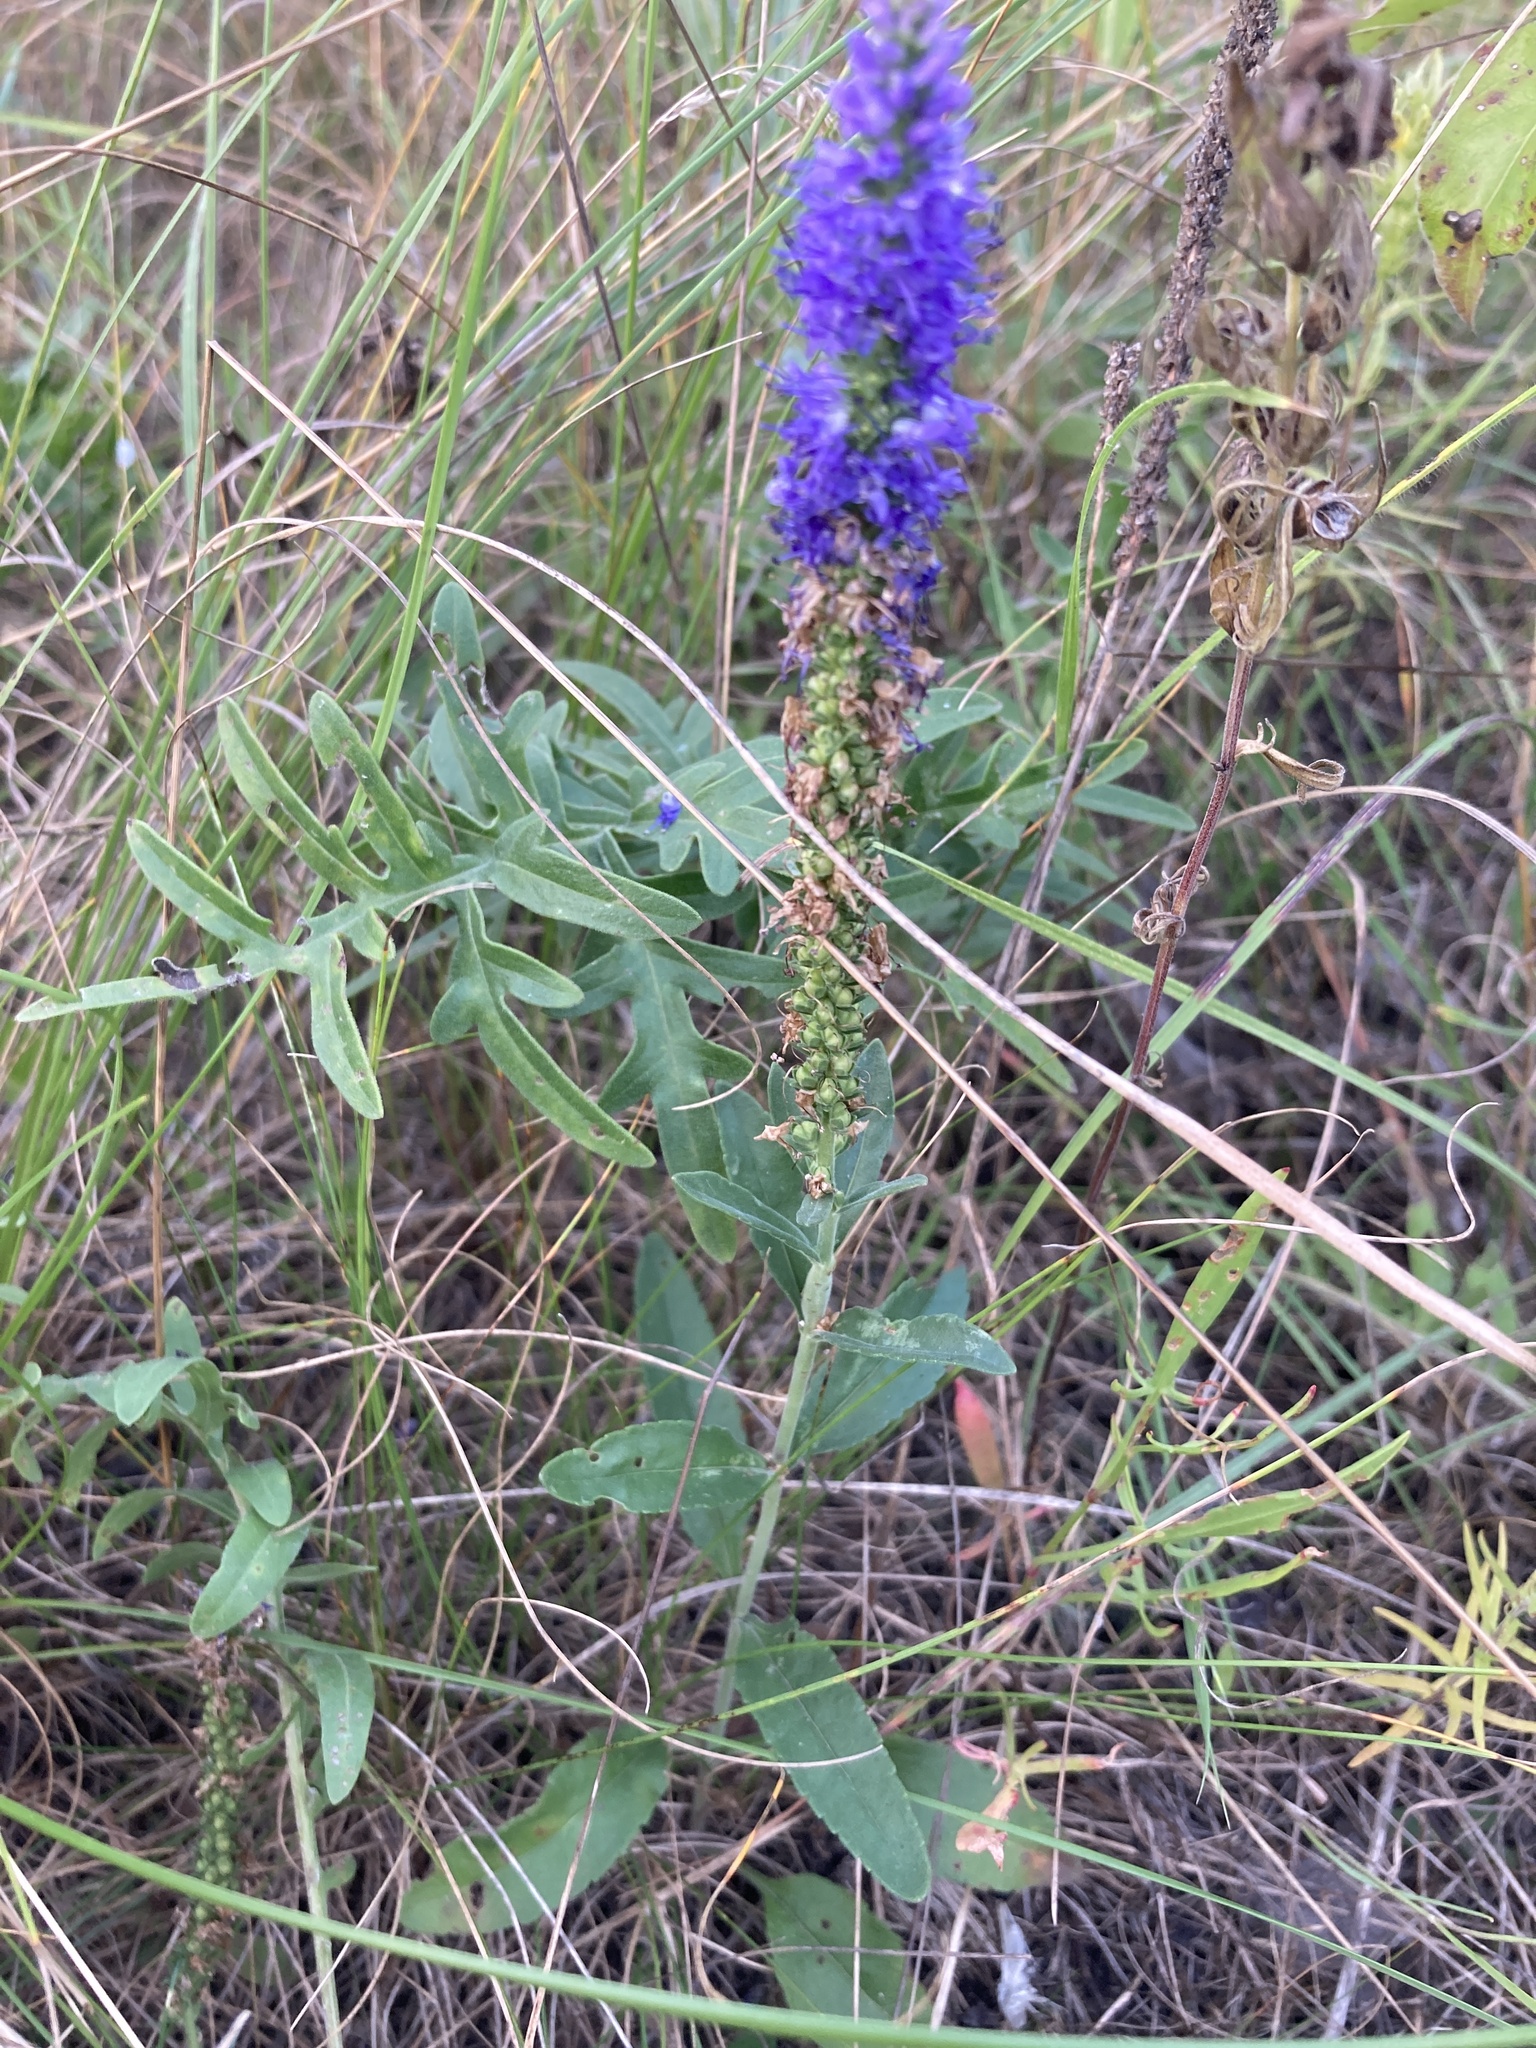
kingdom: Plantae
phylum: Tracheophyta
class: Magnoliopsida
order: Lamiales
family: Plantaginaceae
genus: Veronica
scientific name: Veronica spicata
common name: Spiked speedwell
